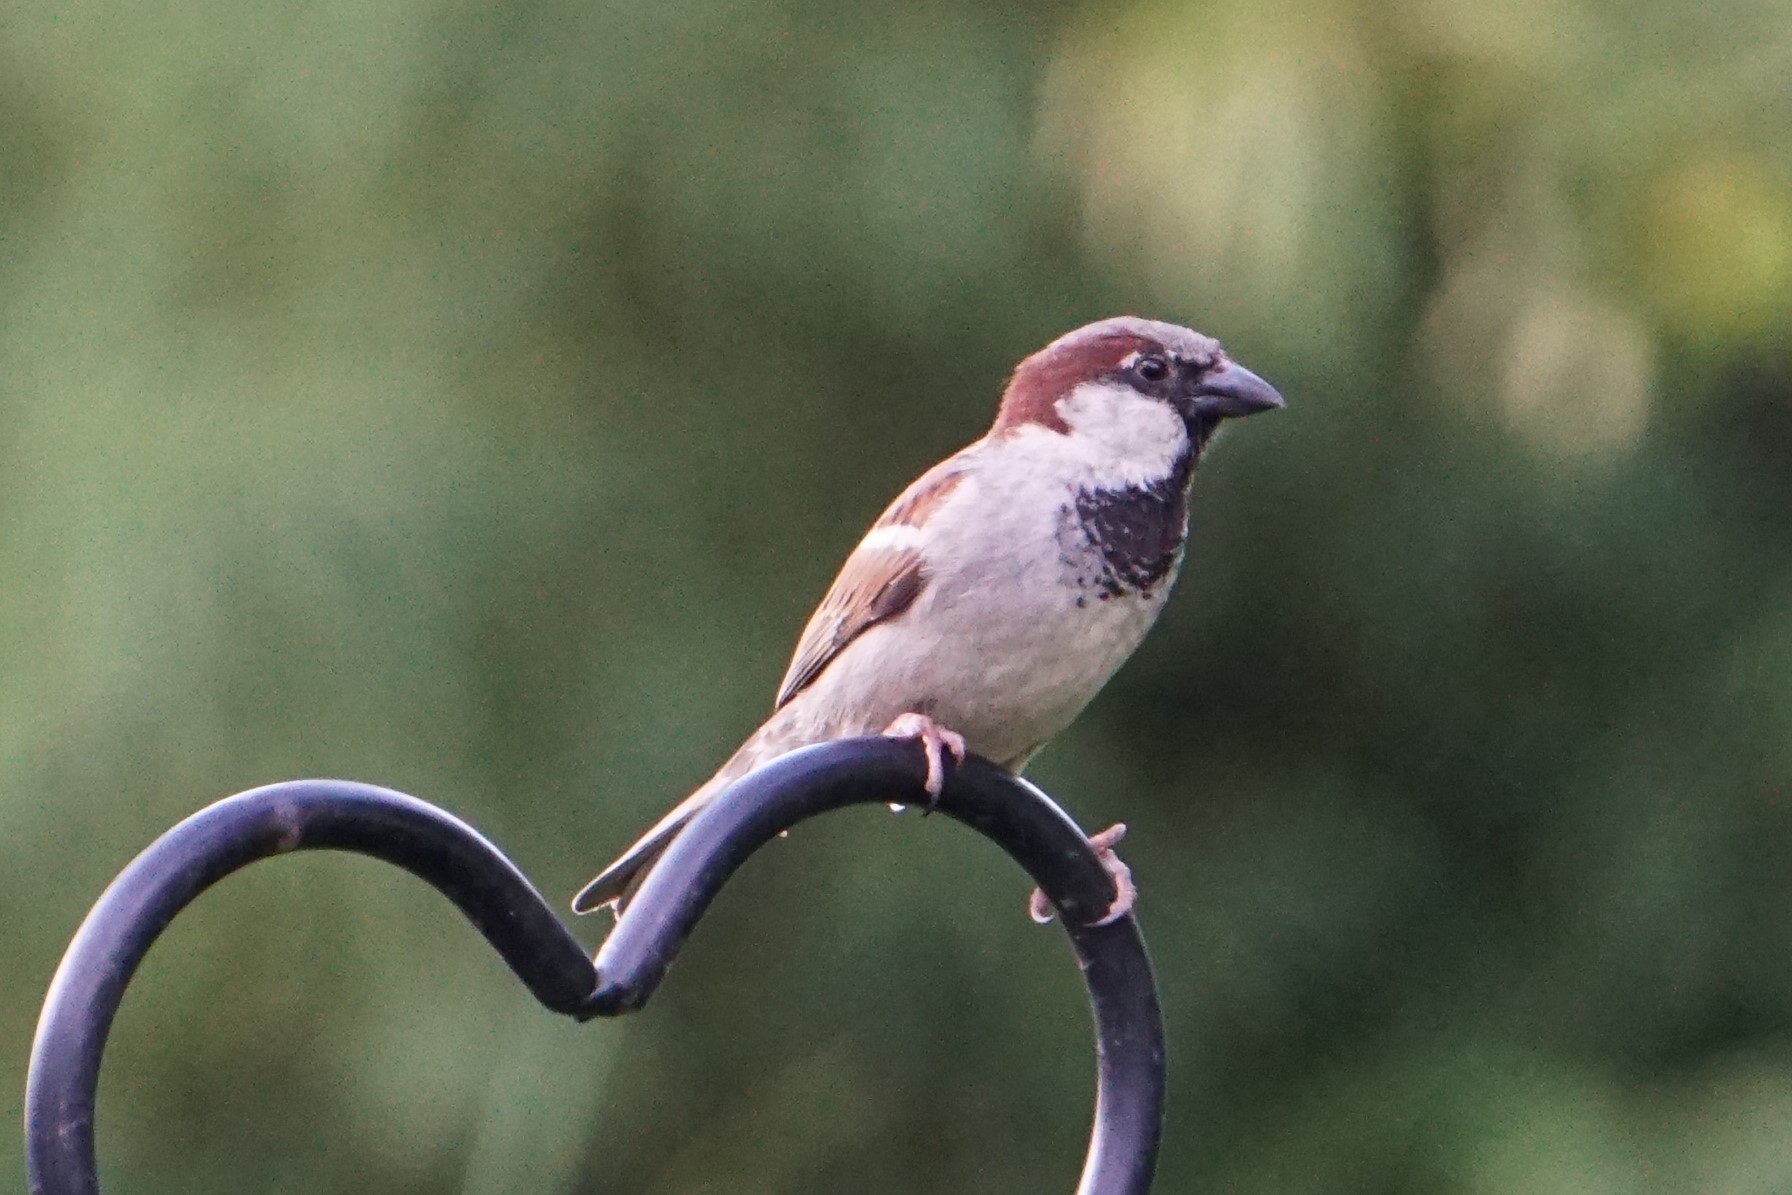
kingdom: Animalia
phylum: Chordata
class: Aves
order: Passeriformes
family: Passeridae
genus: Passer
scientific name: Passer domesticus
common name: House sparrow
